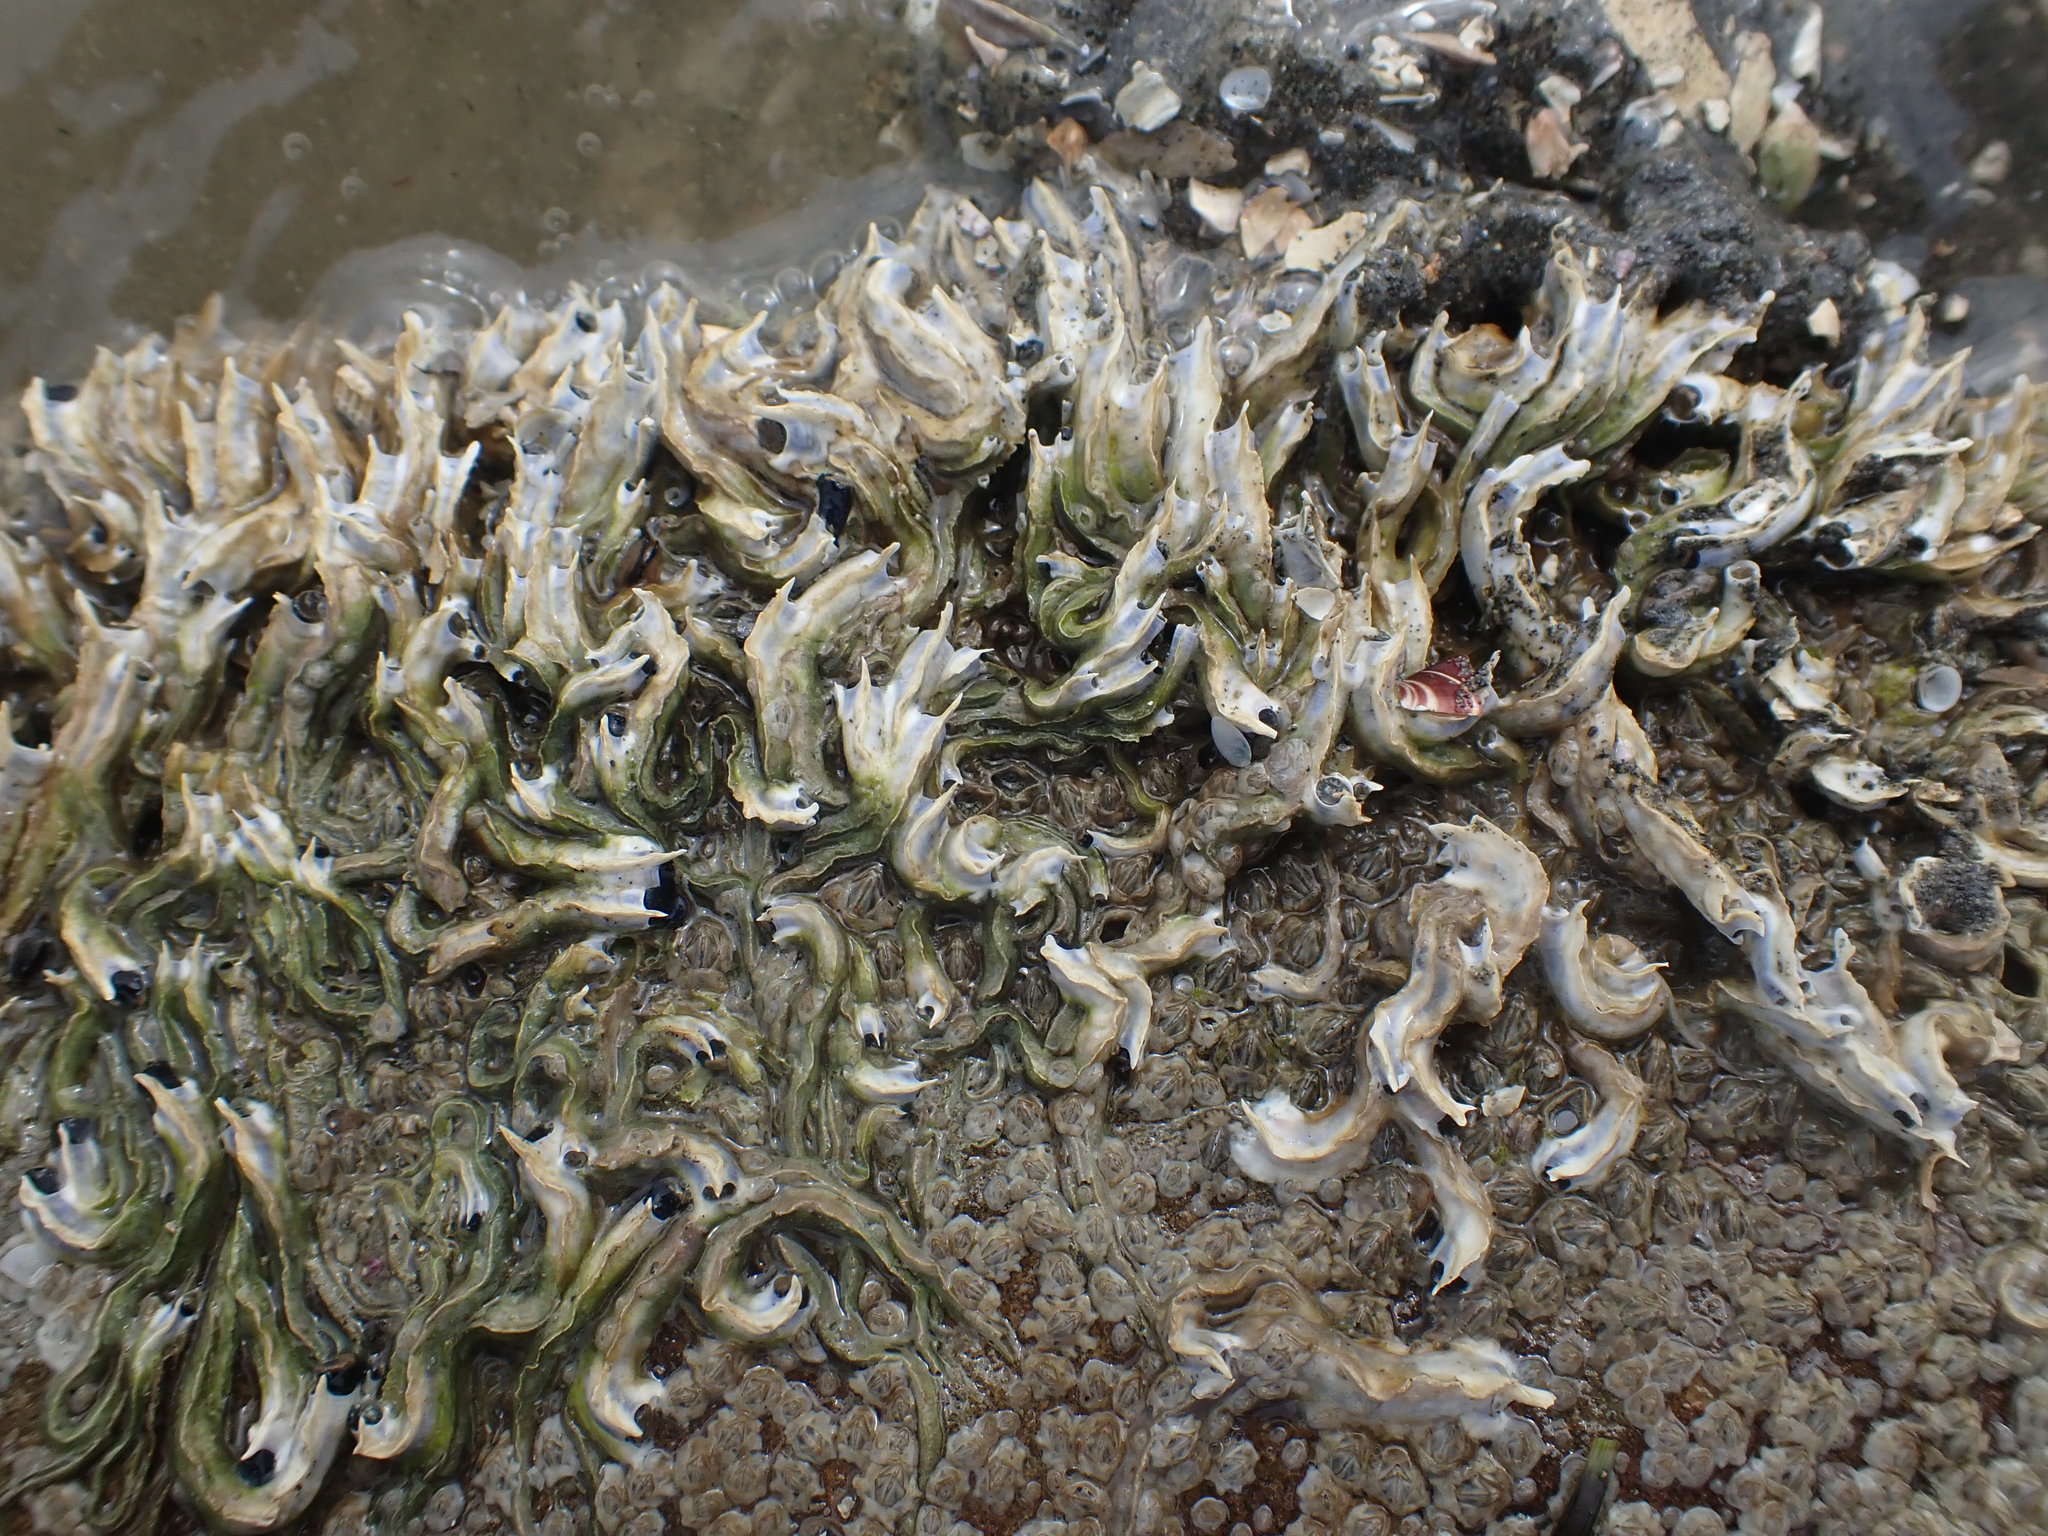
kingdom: Animalia
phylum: Annelida
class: Polychaeta
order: Sabellida
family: Serpulidae
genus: Spirobranchus
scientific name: Spirobranchus cariniferus
